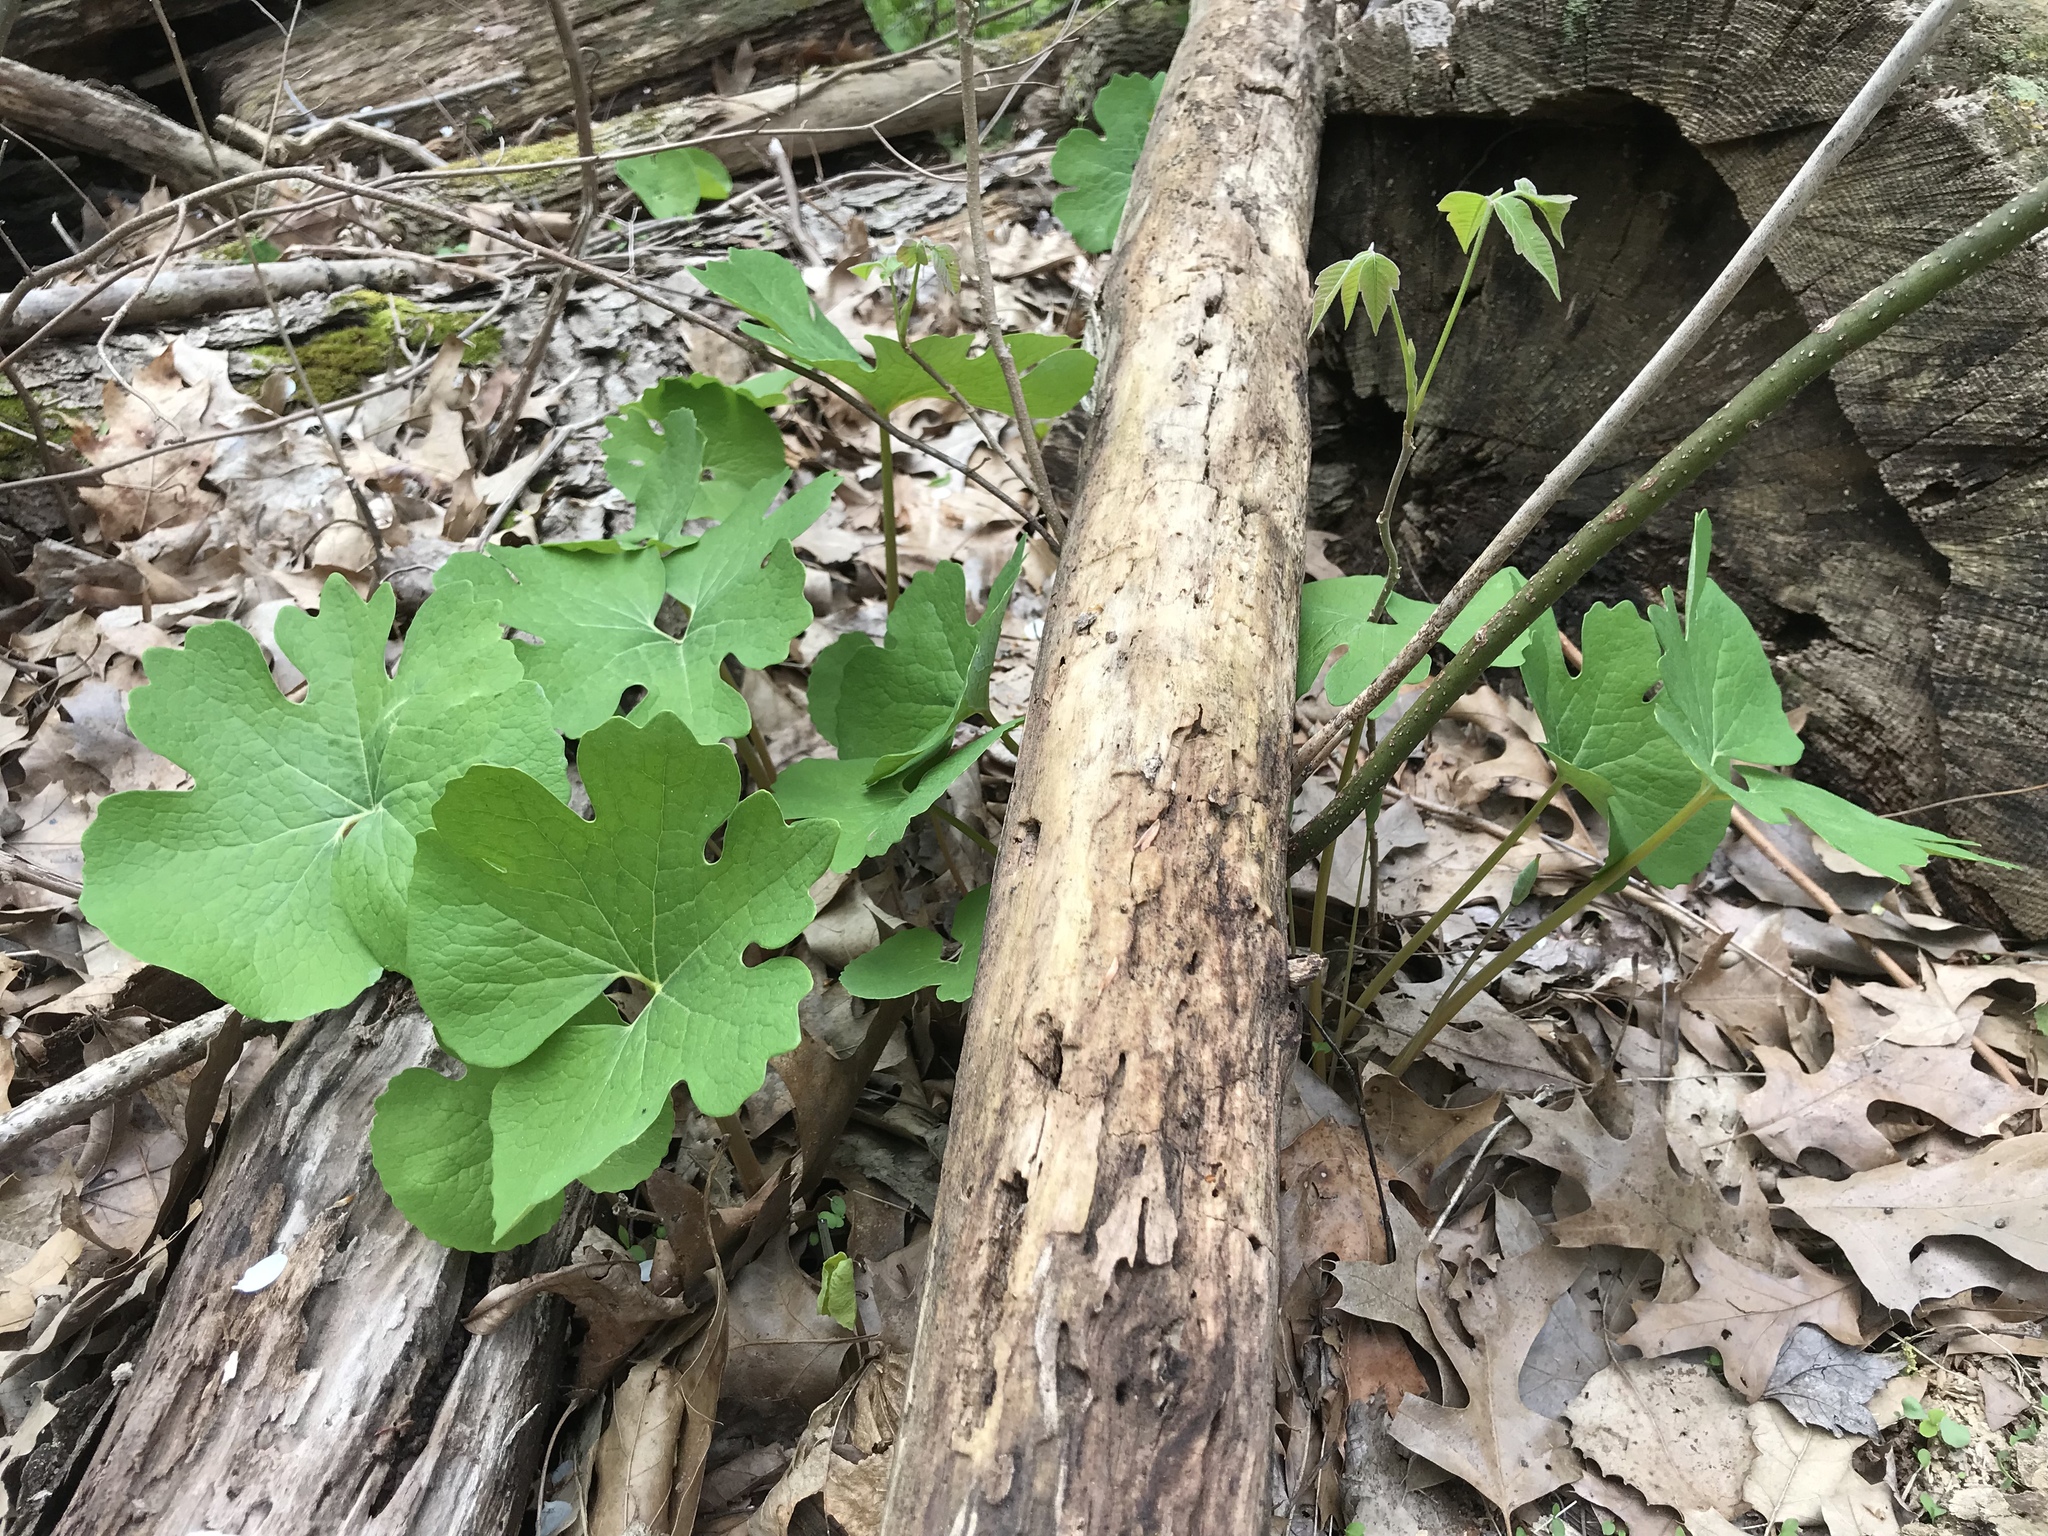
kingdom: Plantae
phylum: Tracheophyta
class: Magnoliopsida
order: Ranunculales
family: Papaveraceae
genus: Sanguinaria
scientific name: Sanguinaria canadensis
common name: Bloodroot
